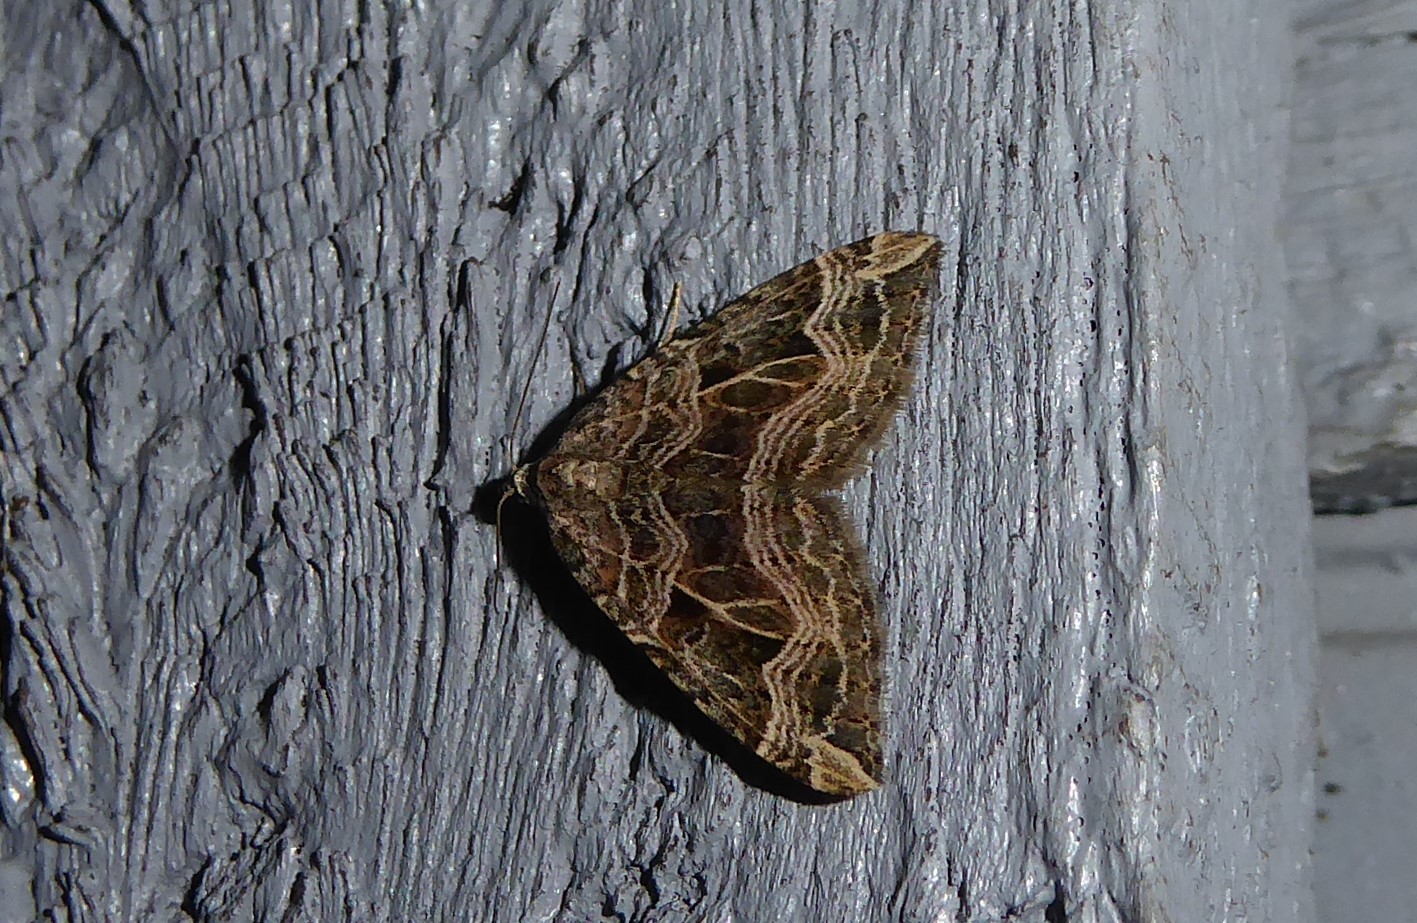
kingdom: Animalia
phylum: Arthropoda
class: Insecta
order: Lepidoptera
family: Geometridae
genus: Xanthorhoe
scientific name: Xanthorhoe semifissata
